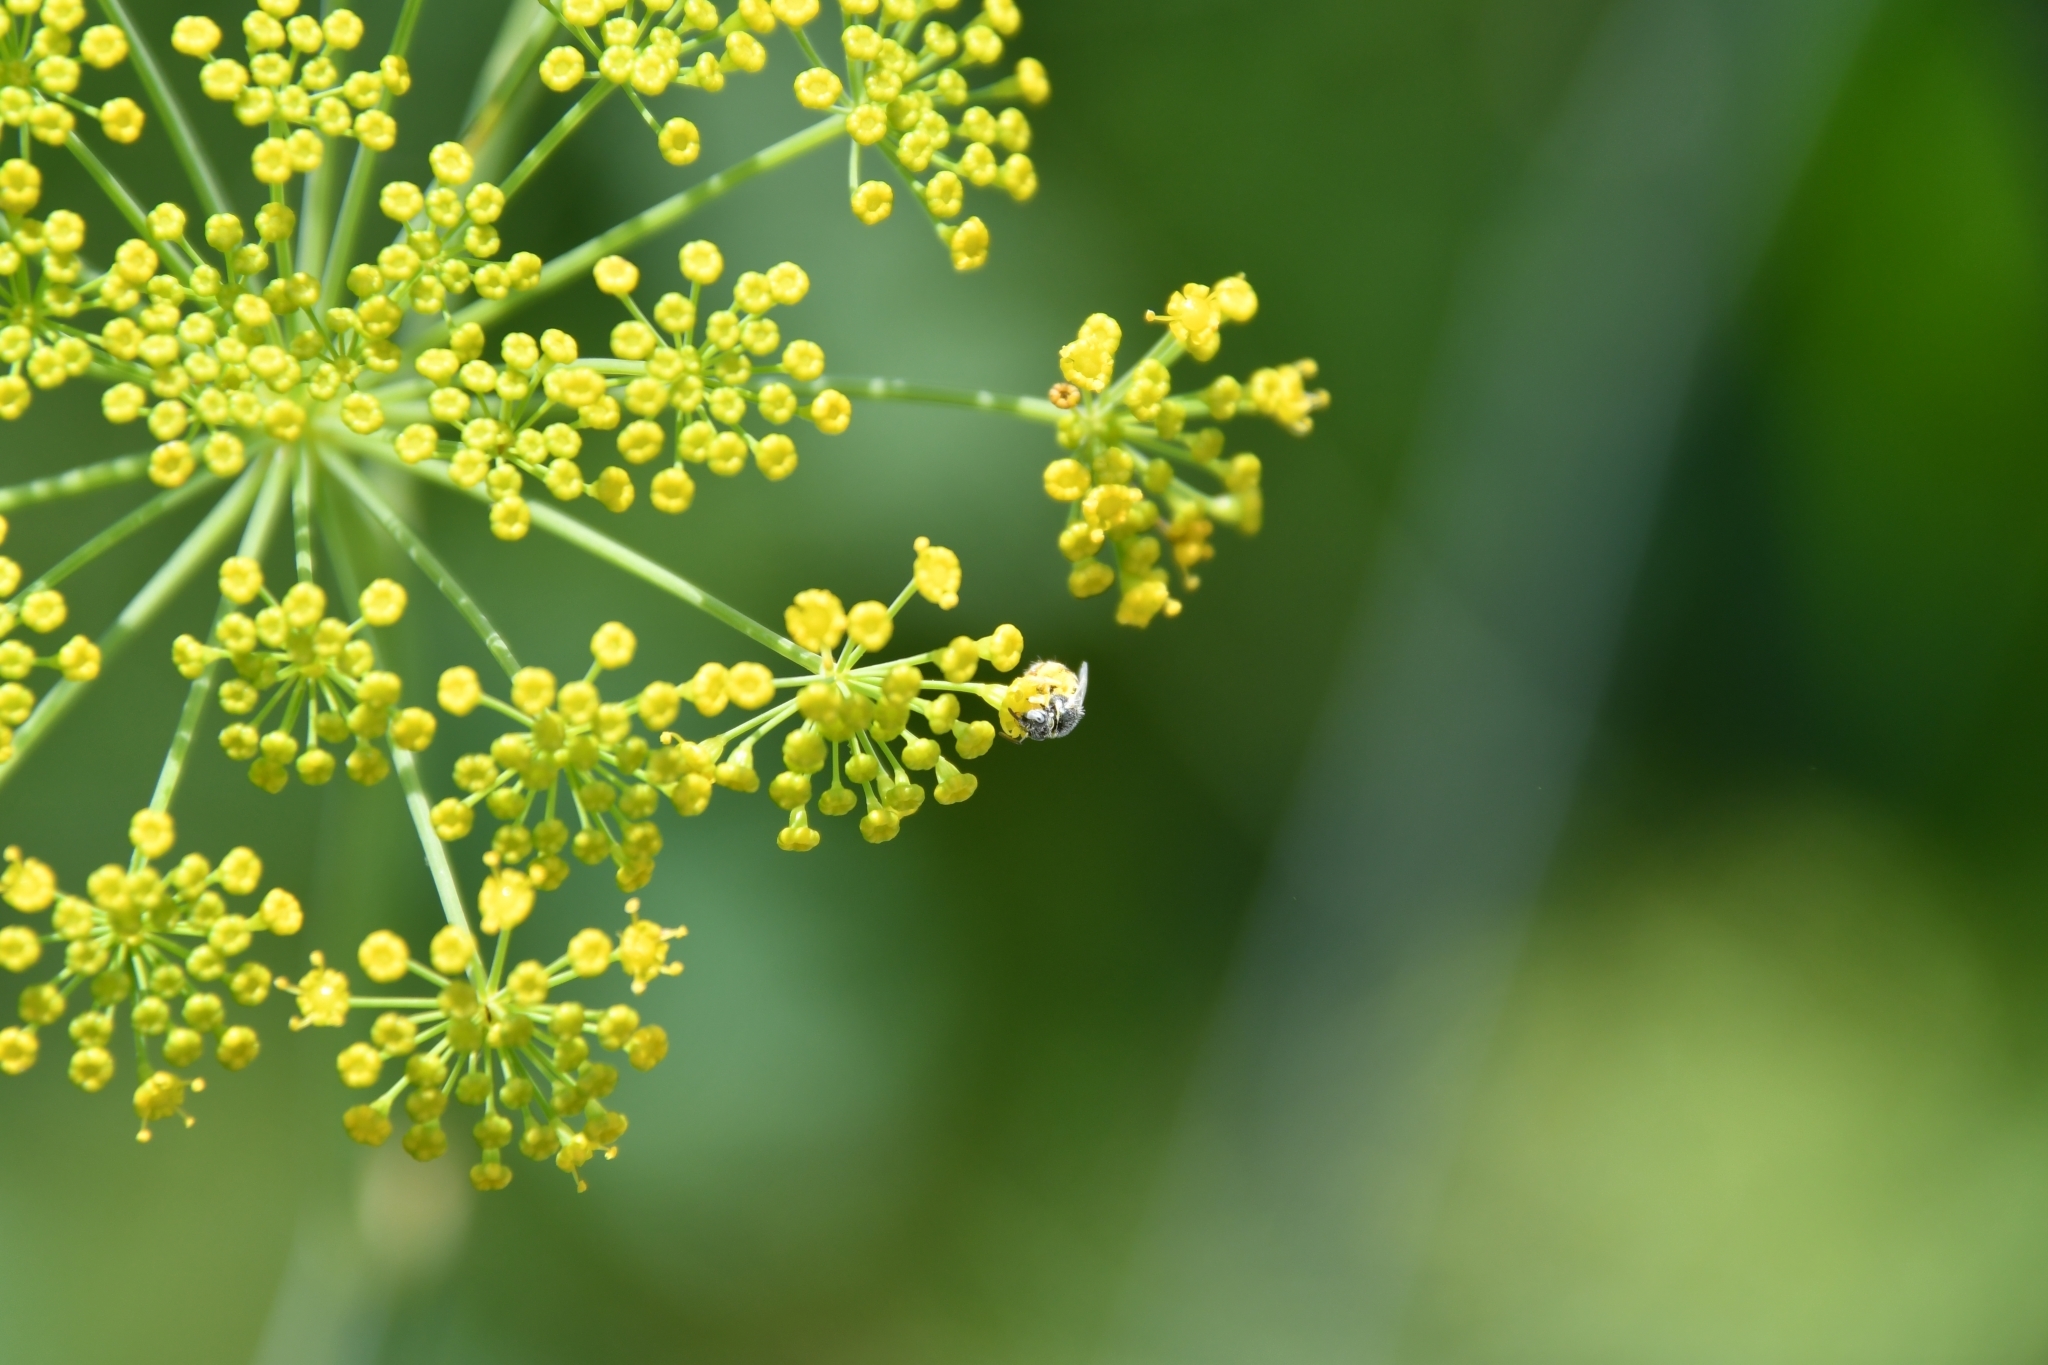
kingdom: Animalia
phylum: Arthropoda
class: Insecta
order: Hymenoptera
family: Halictidae
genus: Ceylalictus
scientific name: Ceylalictus variegatus
